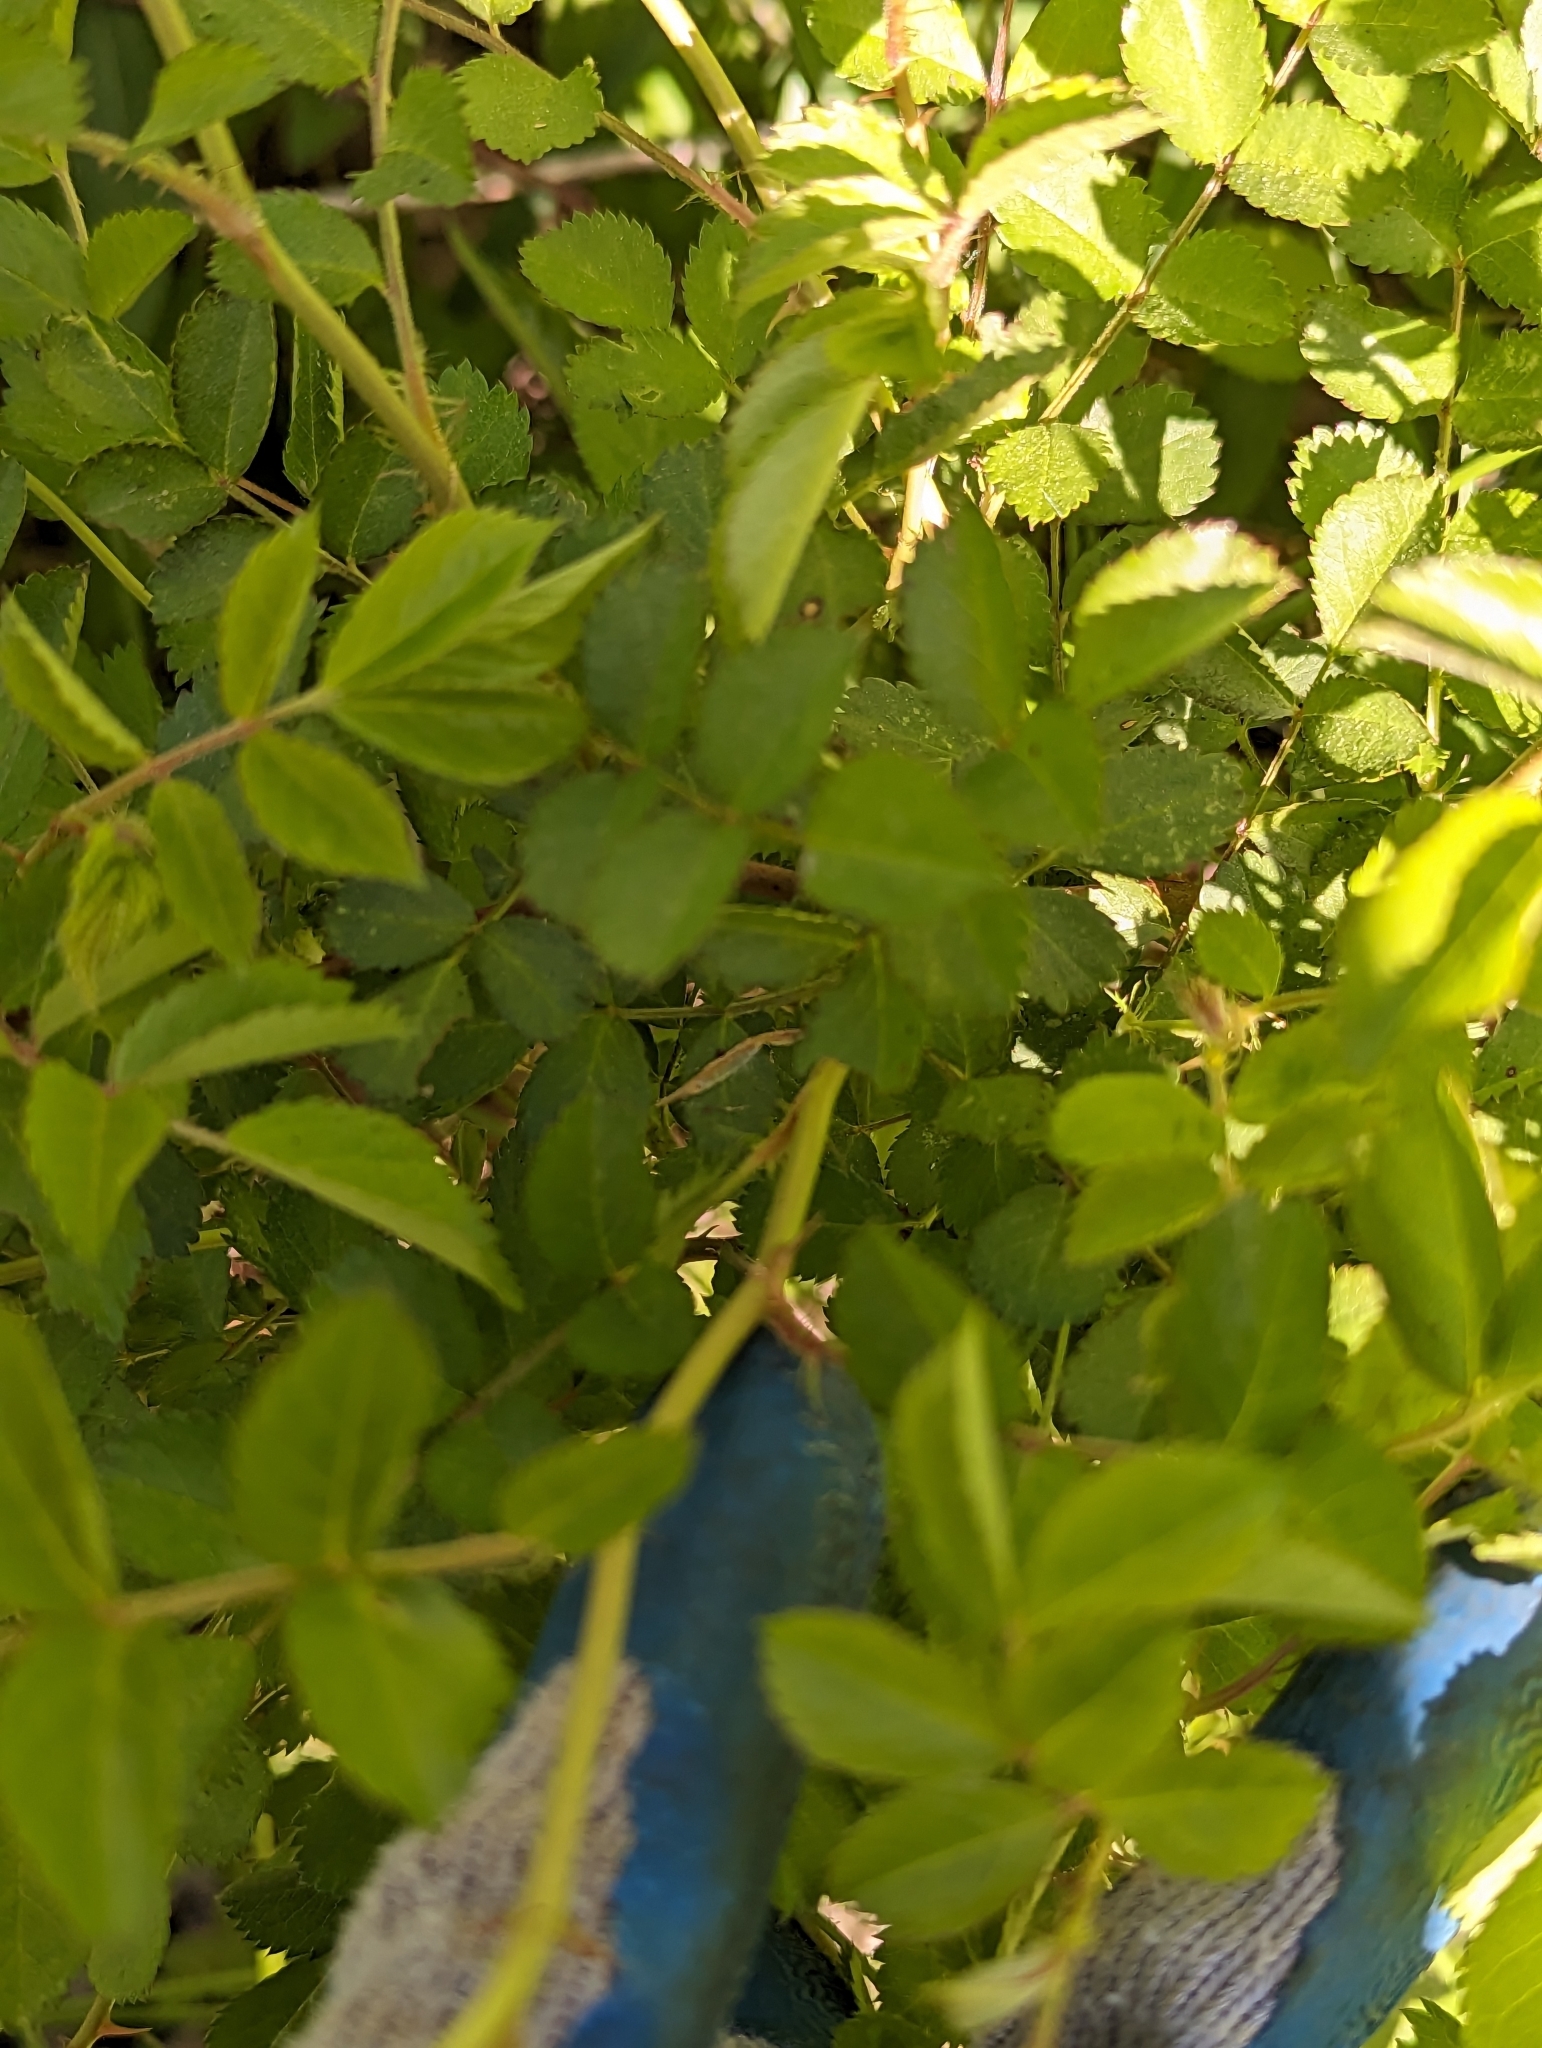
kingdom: Plantae
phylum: Tracheophyta
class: Magnoliopsida
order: Rosales
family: Rosaceae
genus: Rosa
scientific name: Rosa multiflora
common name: Multiflora rose
